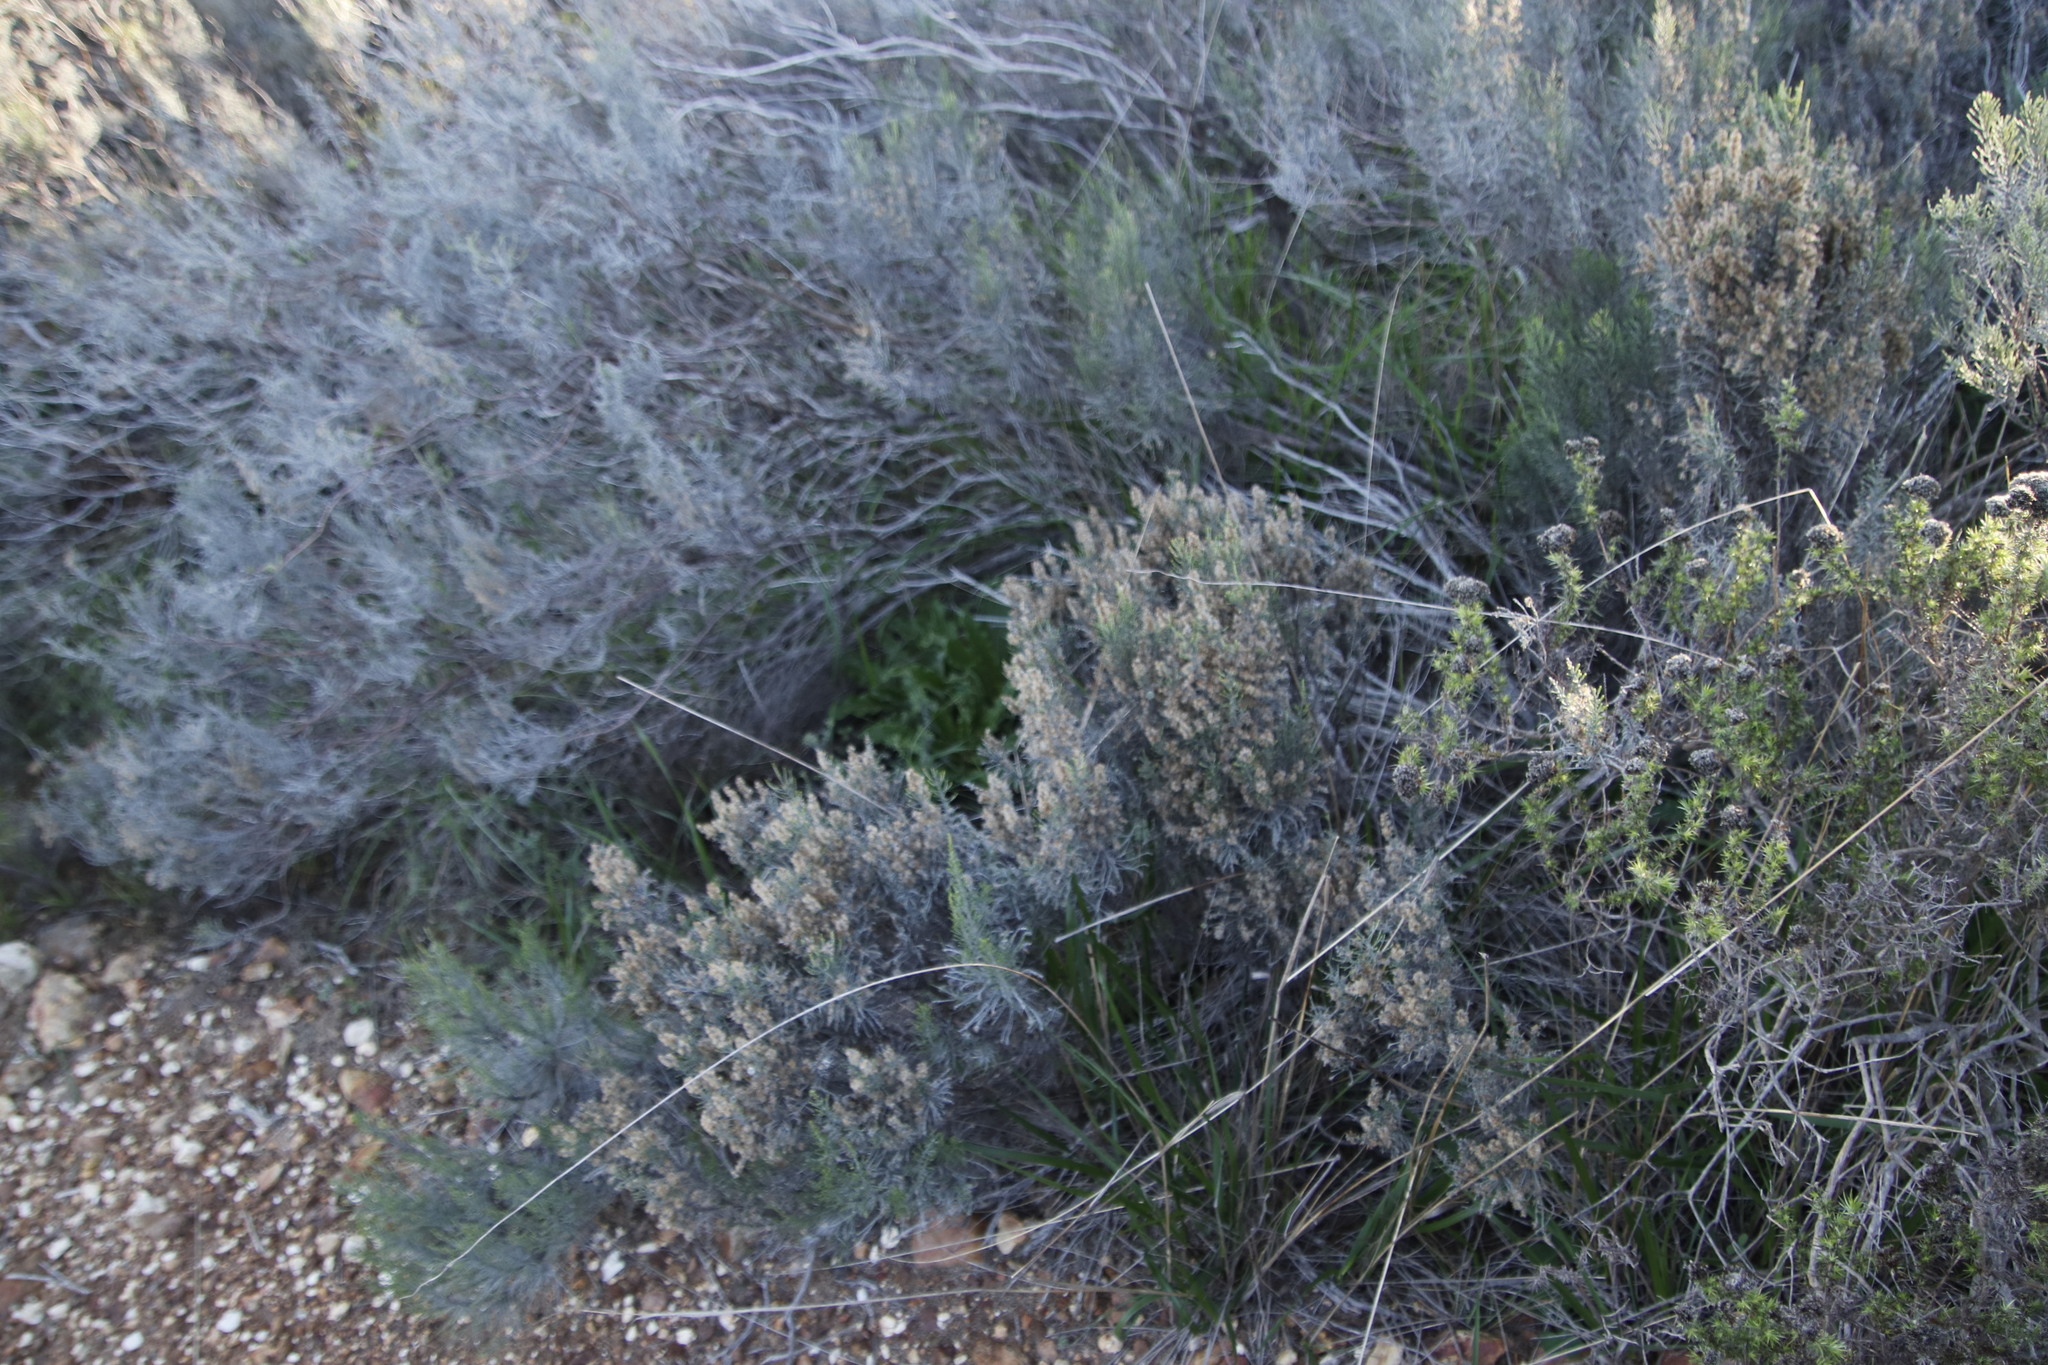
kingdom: Plantae
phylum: Tracheophyta
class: Magnoliopsida
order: Asterales
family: Asteraceae
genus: Dicerothamnus
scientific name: Dicerothamnus rhinocerotis
